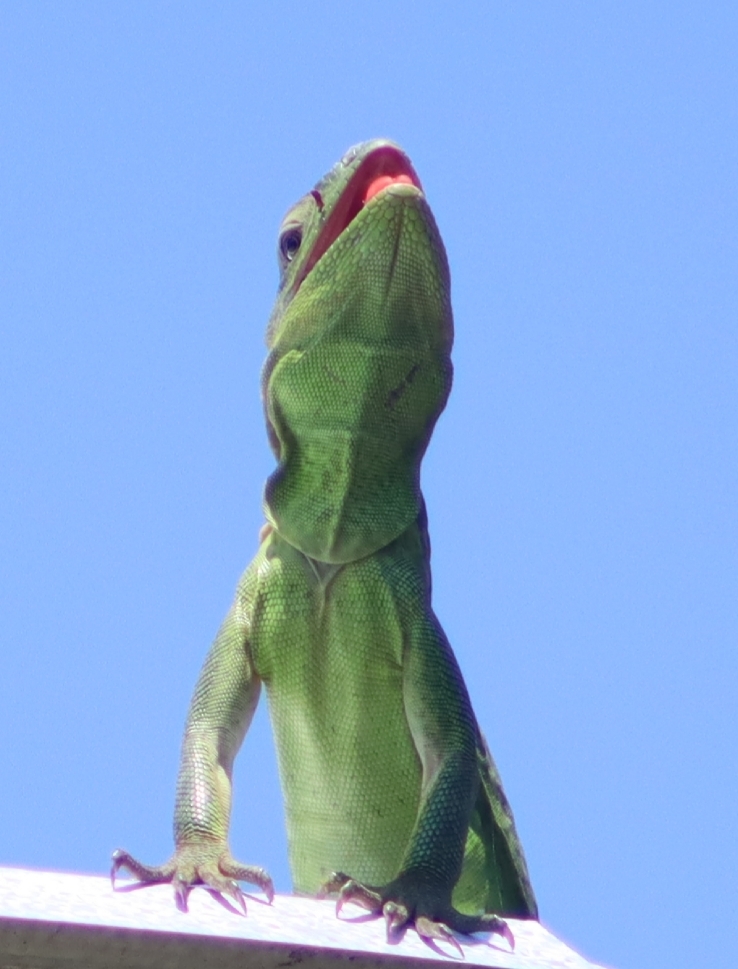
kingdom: Animalia
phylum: Chordata
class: Squamata
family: Iguanidae
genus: Ctenosaura
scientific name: Ctenosaura pectinata
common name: Guerreran spiny-tailed iguana
